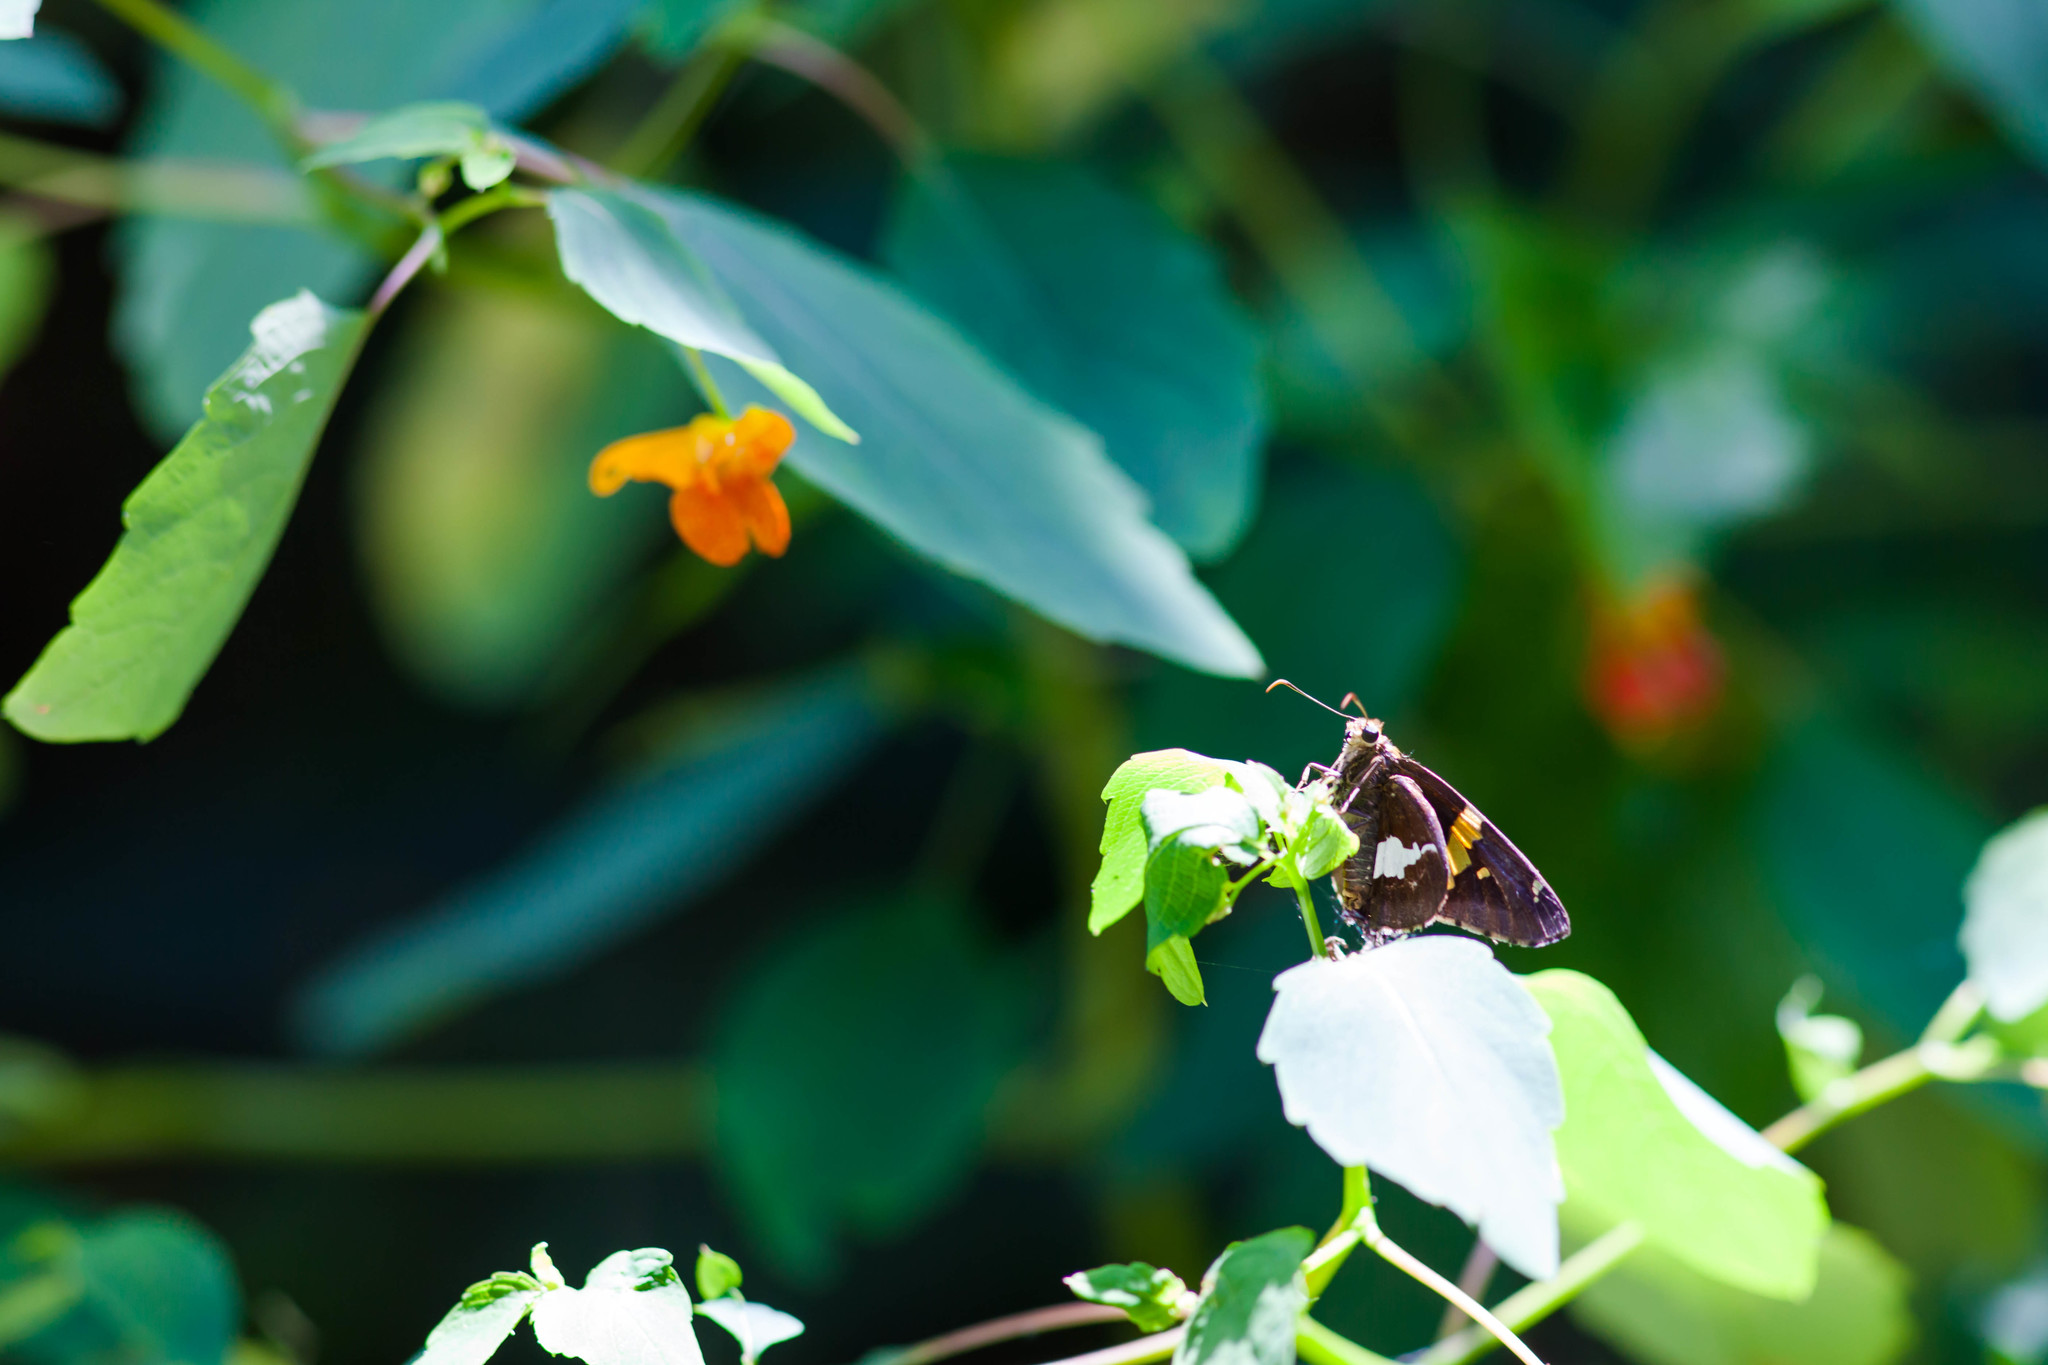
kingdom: Animalia
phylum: Arthropoda
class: Insecta
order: Lepidoptera
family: Hesperiidae
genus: Epargyreus
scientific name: Epargyreus clarus
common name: Silver-spotted skipper
